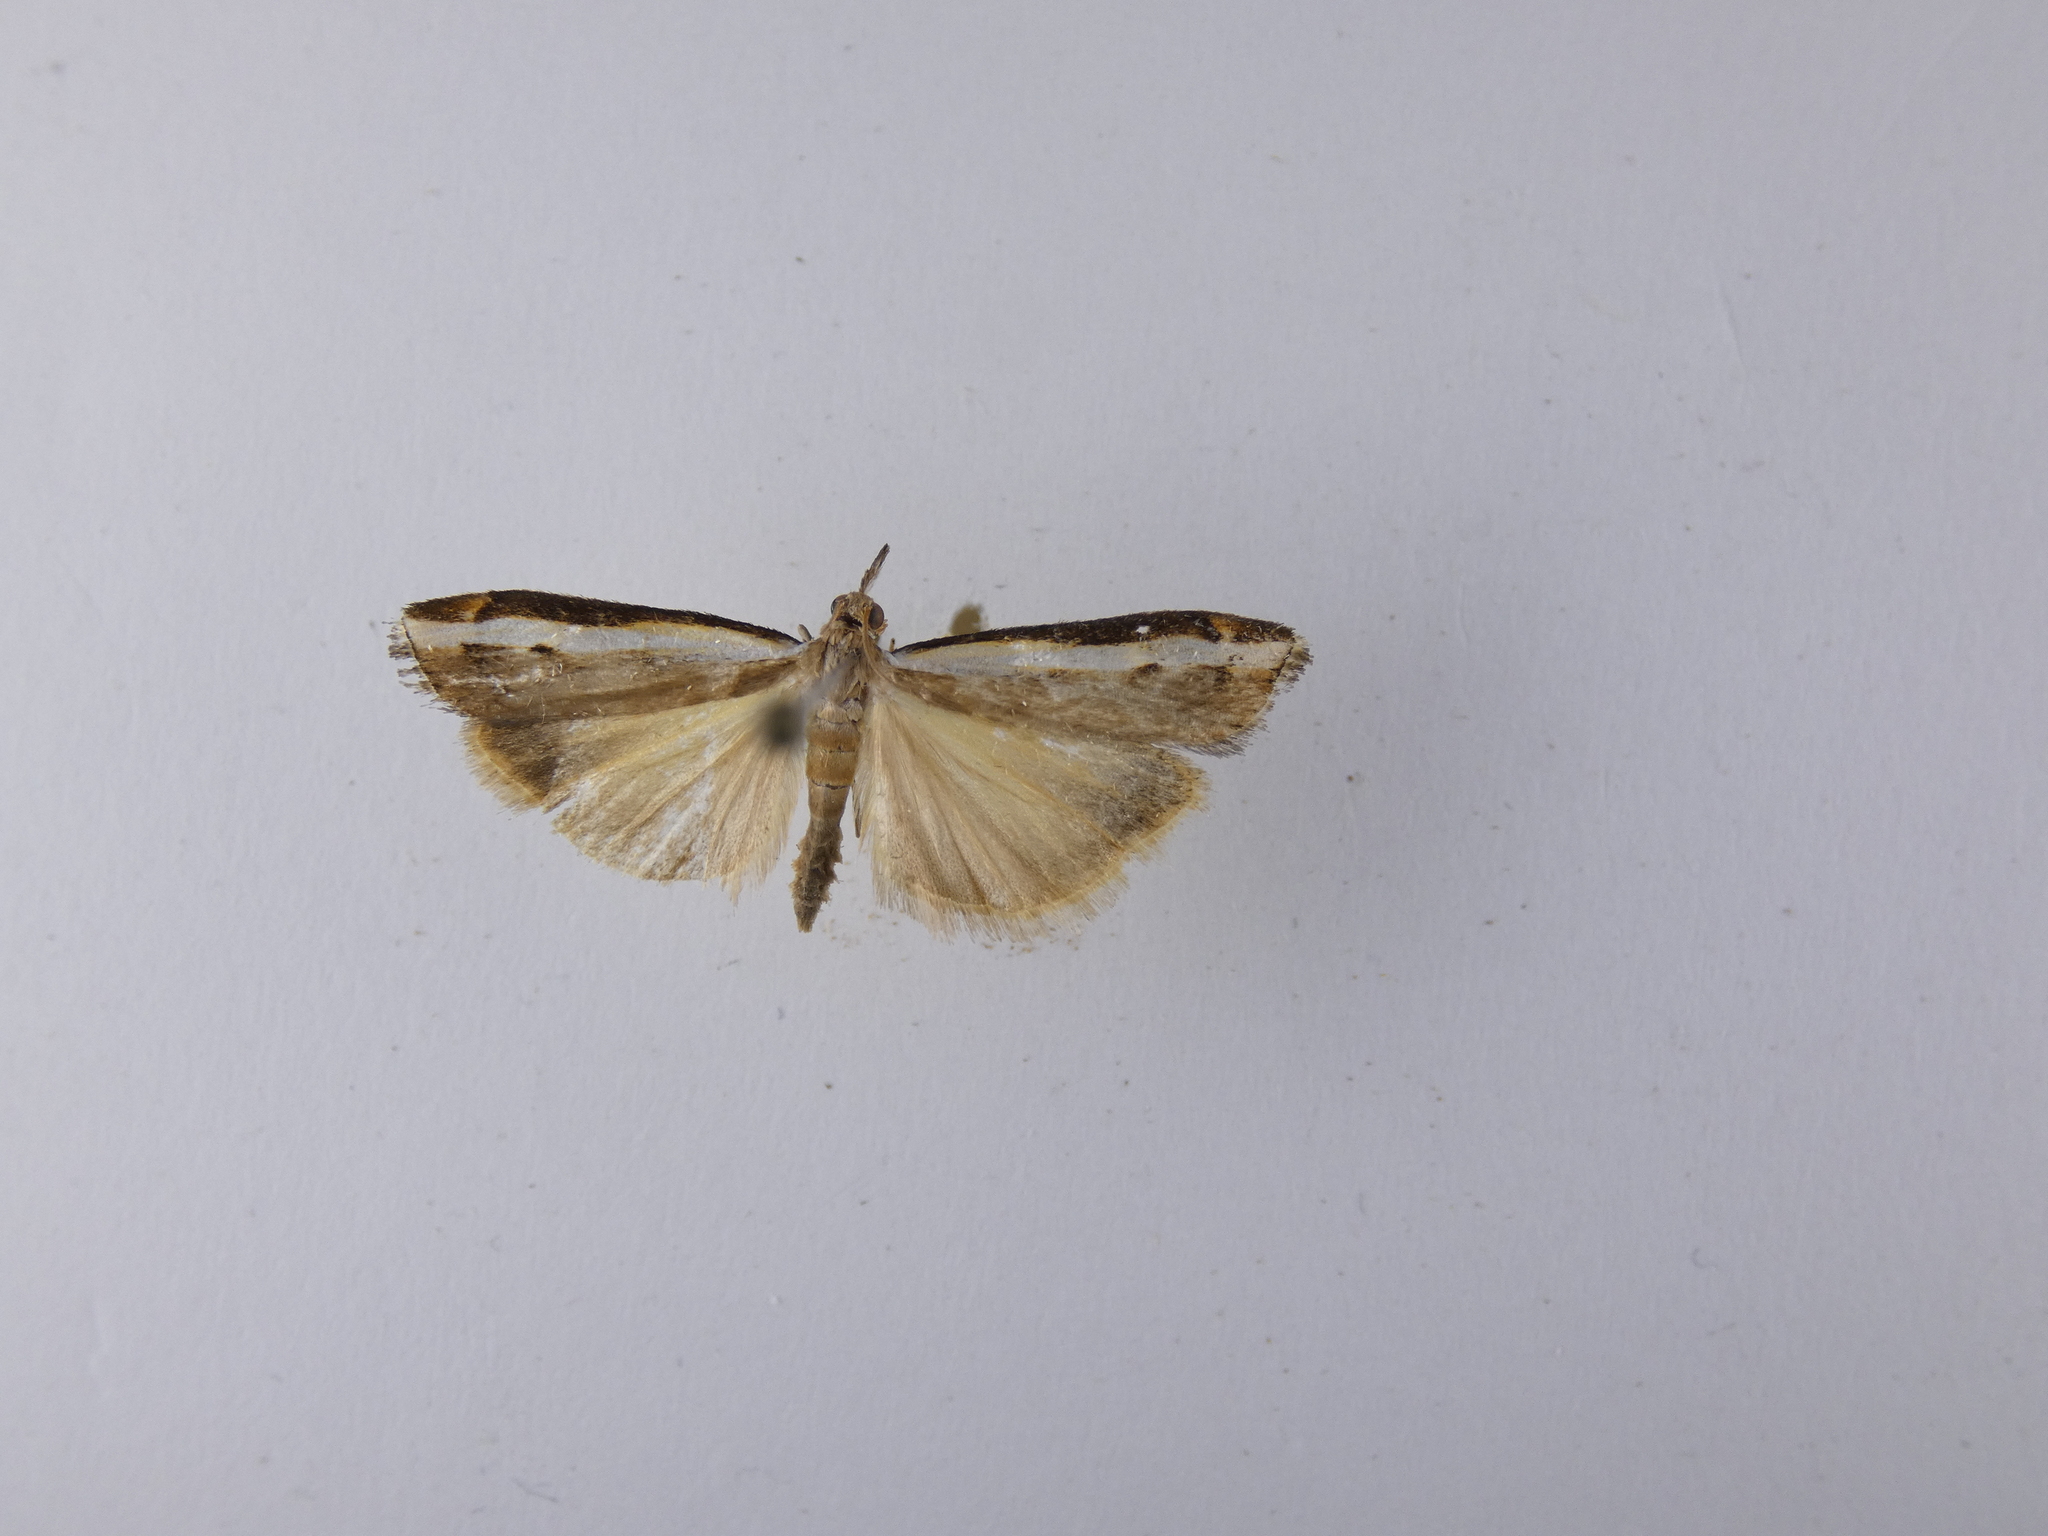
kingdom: Animalia
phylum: Arthropoda
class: Insecta
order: Lepidoptera
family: Crambidae
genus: Orocrambus
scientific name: Orocrambus flexuosellus
